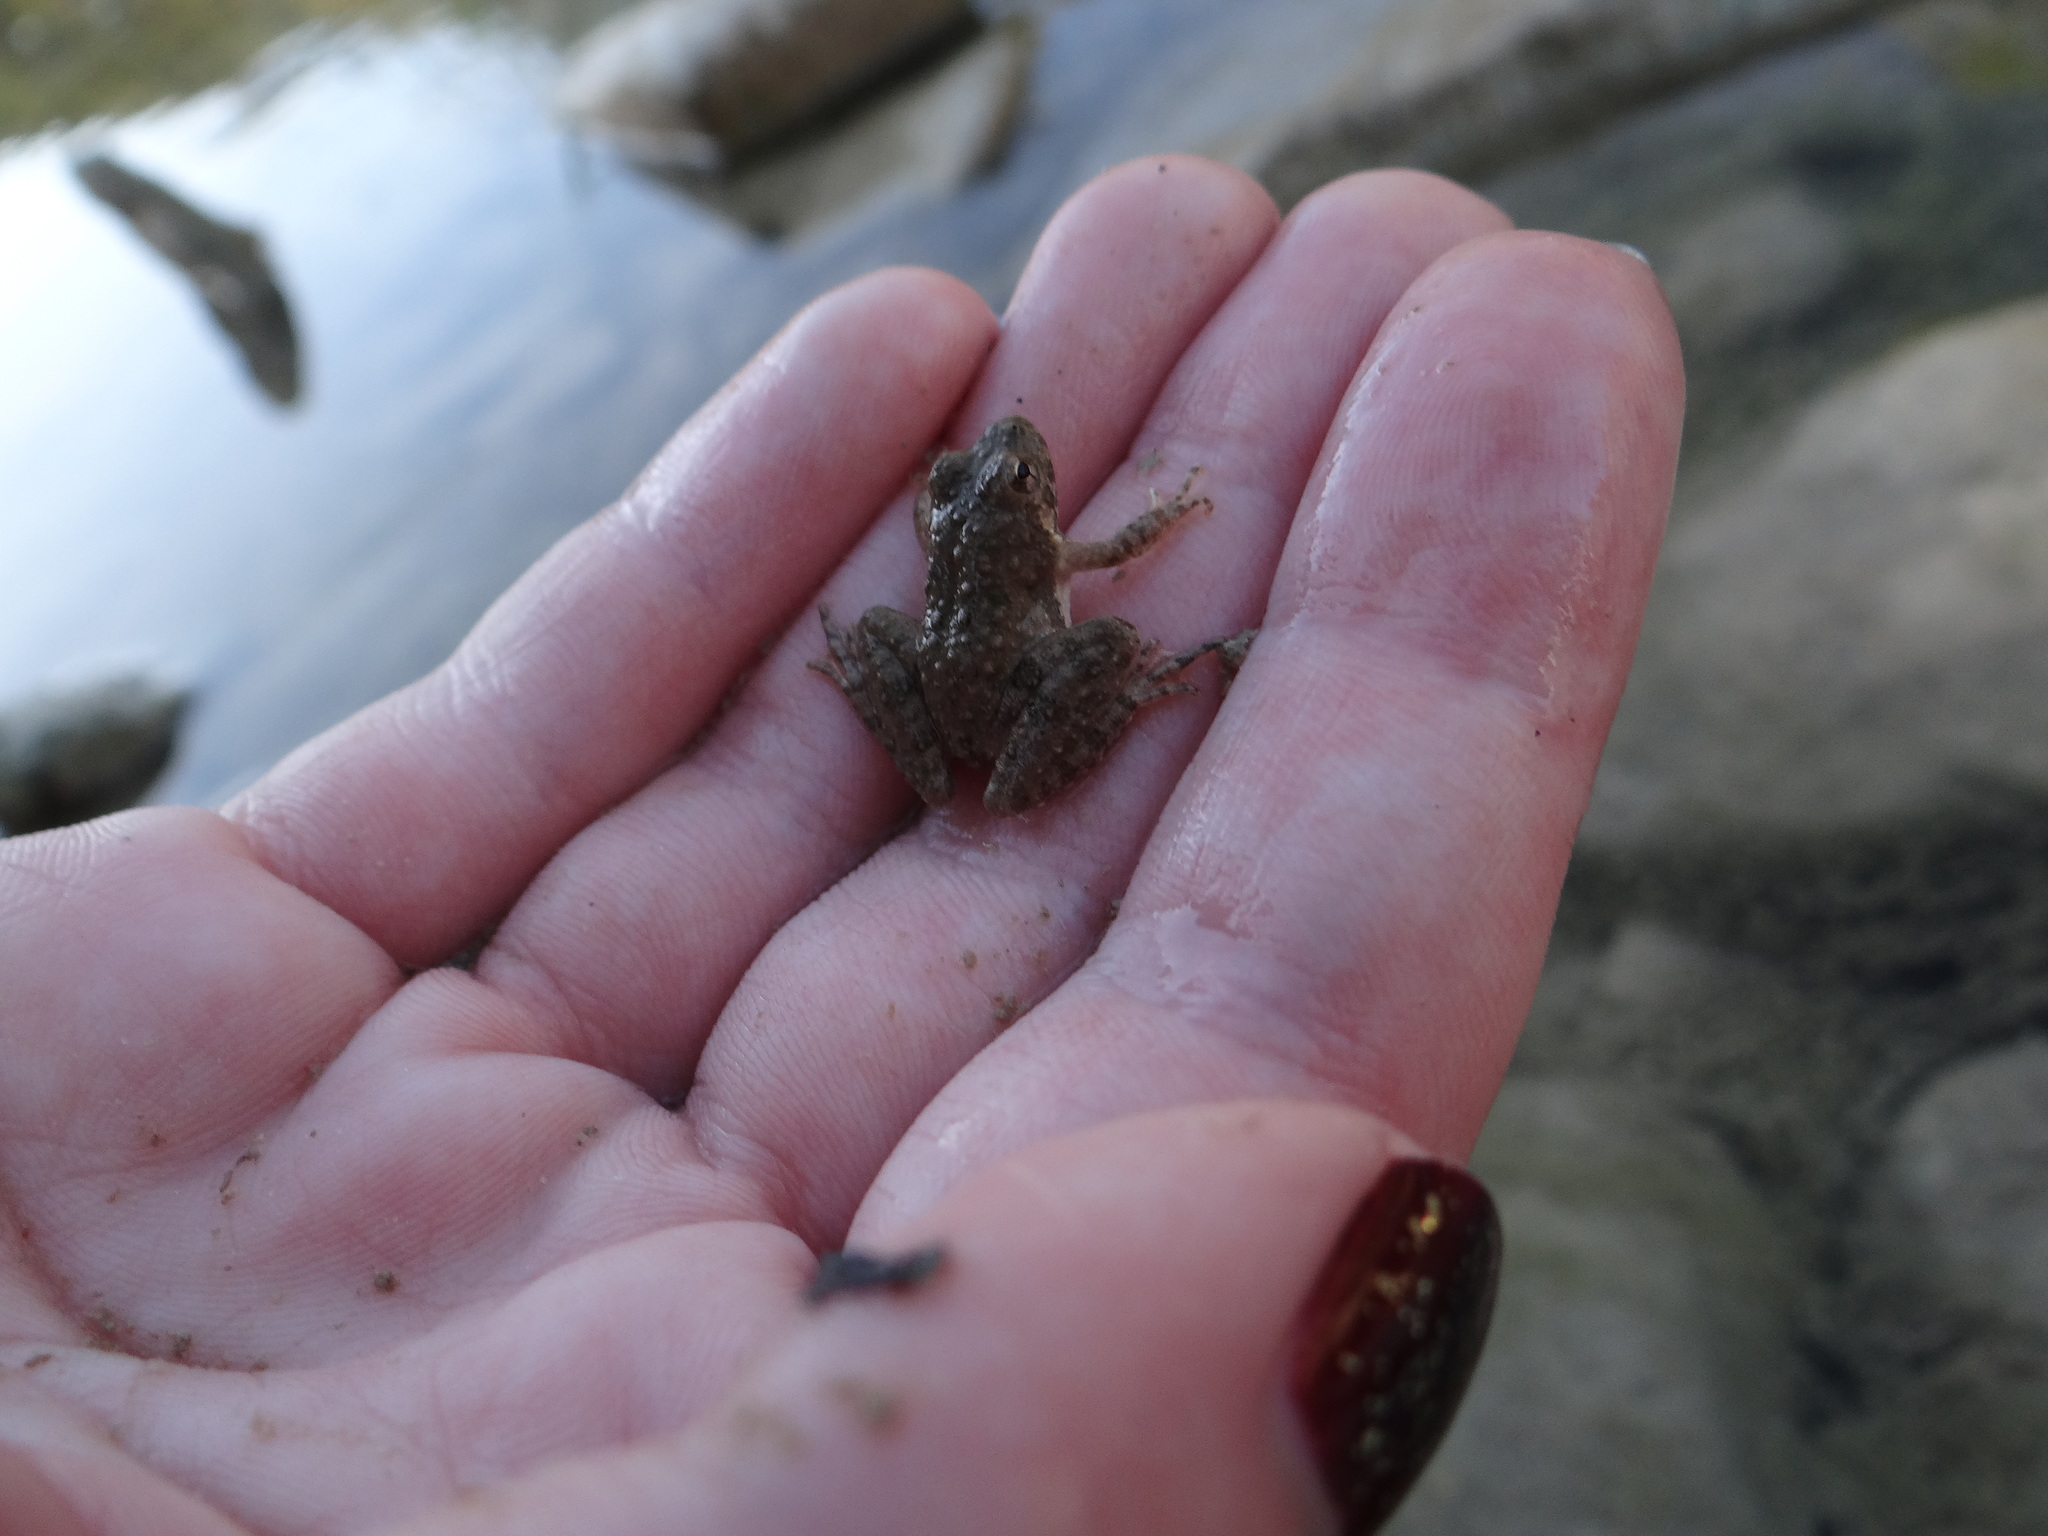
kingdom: Animalia
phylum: Chordata
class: Amphibia
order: Anura
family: Hylidae
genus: Acris
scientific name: Acris blanchardi
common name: Blanchard's cricket frog
